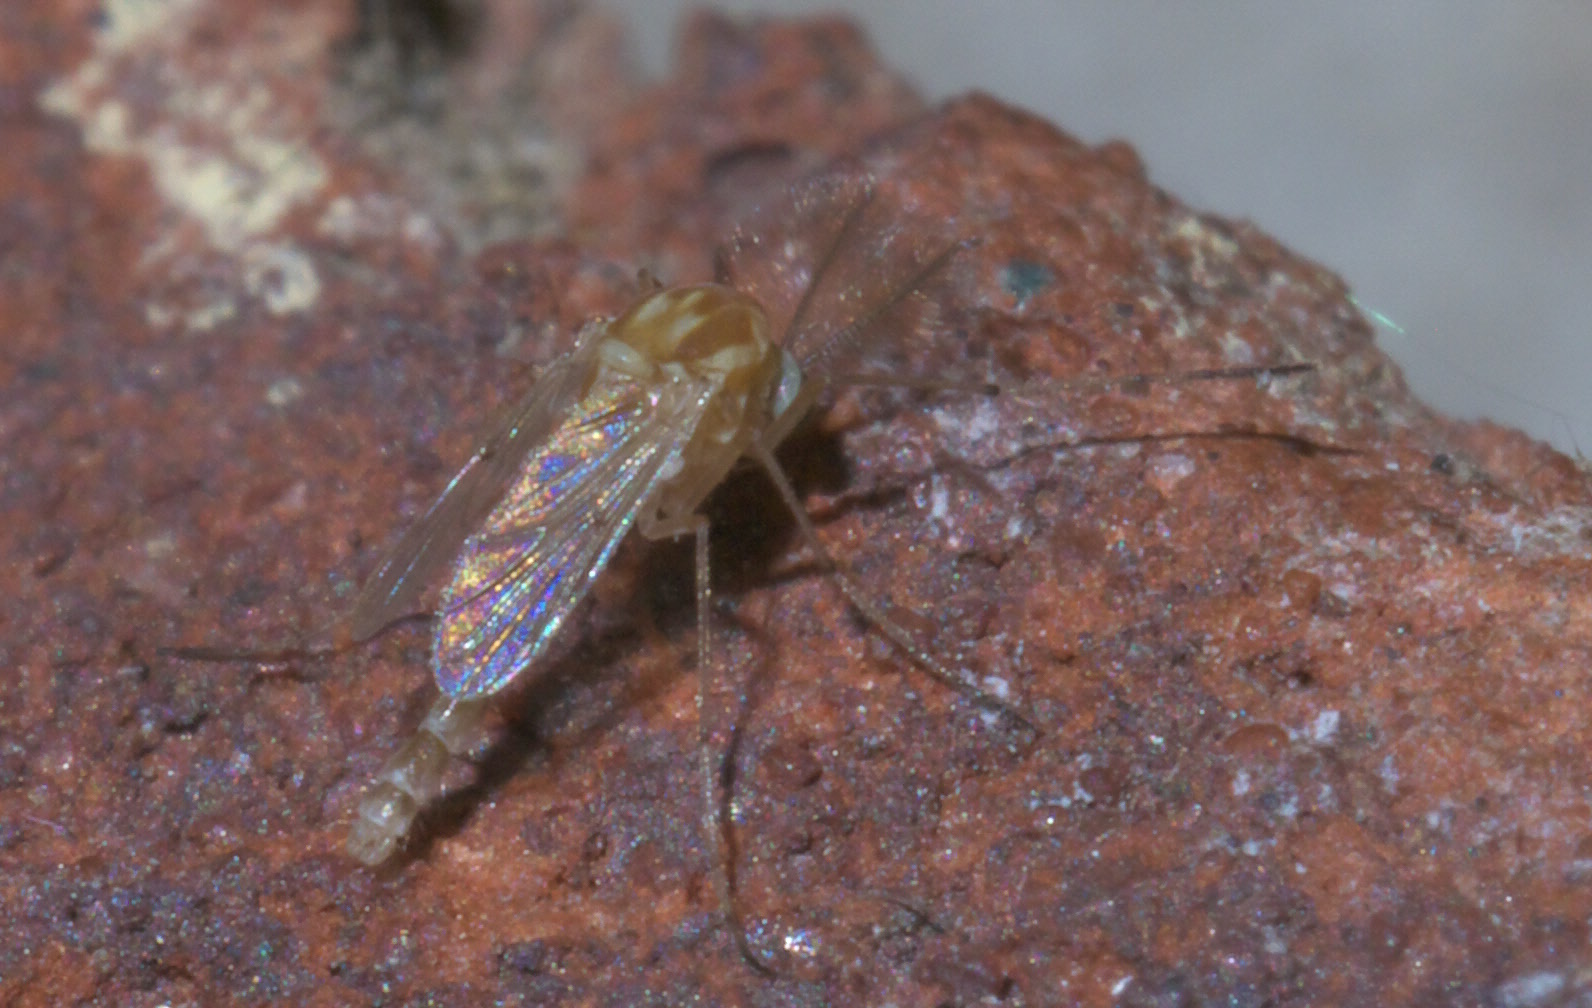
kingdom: Animalia
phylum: Arthropoda
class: Insecta
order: Diptera
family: Chironomidae
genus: Procladius
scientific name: Procladius bellus
